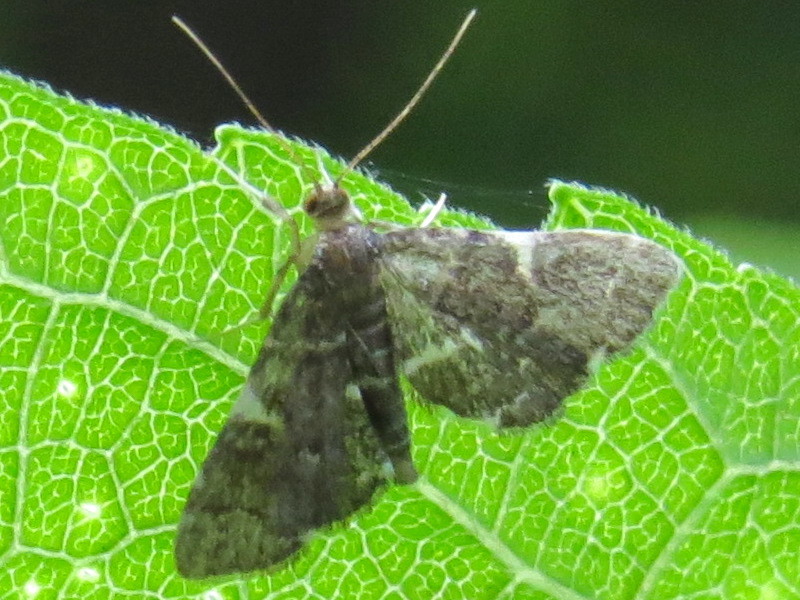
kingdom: Animalia
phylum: Arthropoda
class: Insecta
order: Lepidoptera
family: Crambidae
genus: Anageshna
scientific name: Anageshna primordialis
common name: Yellow-spotted webworm moth
